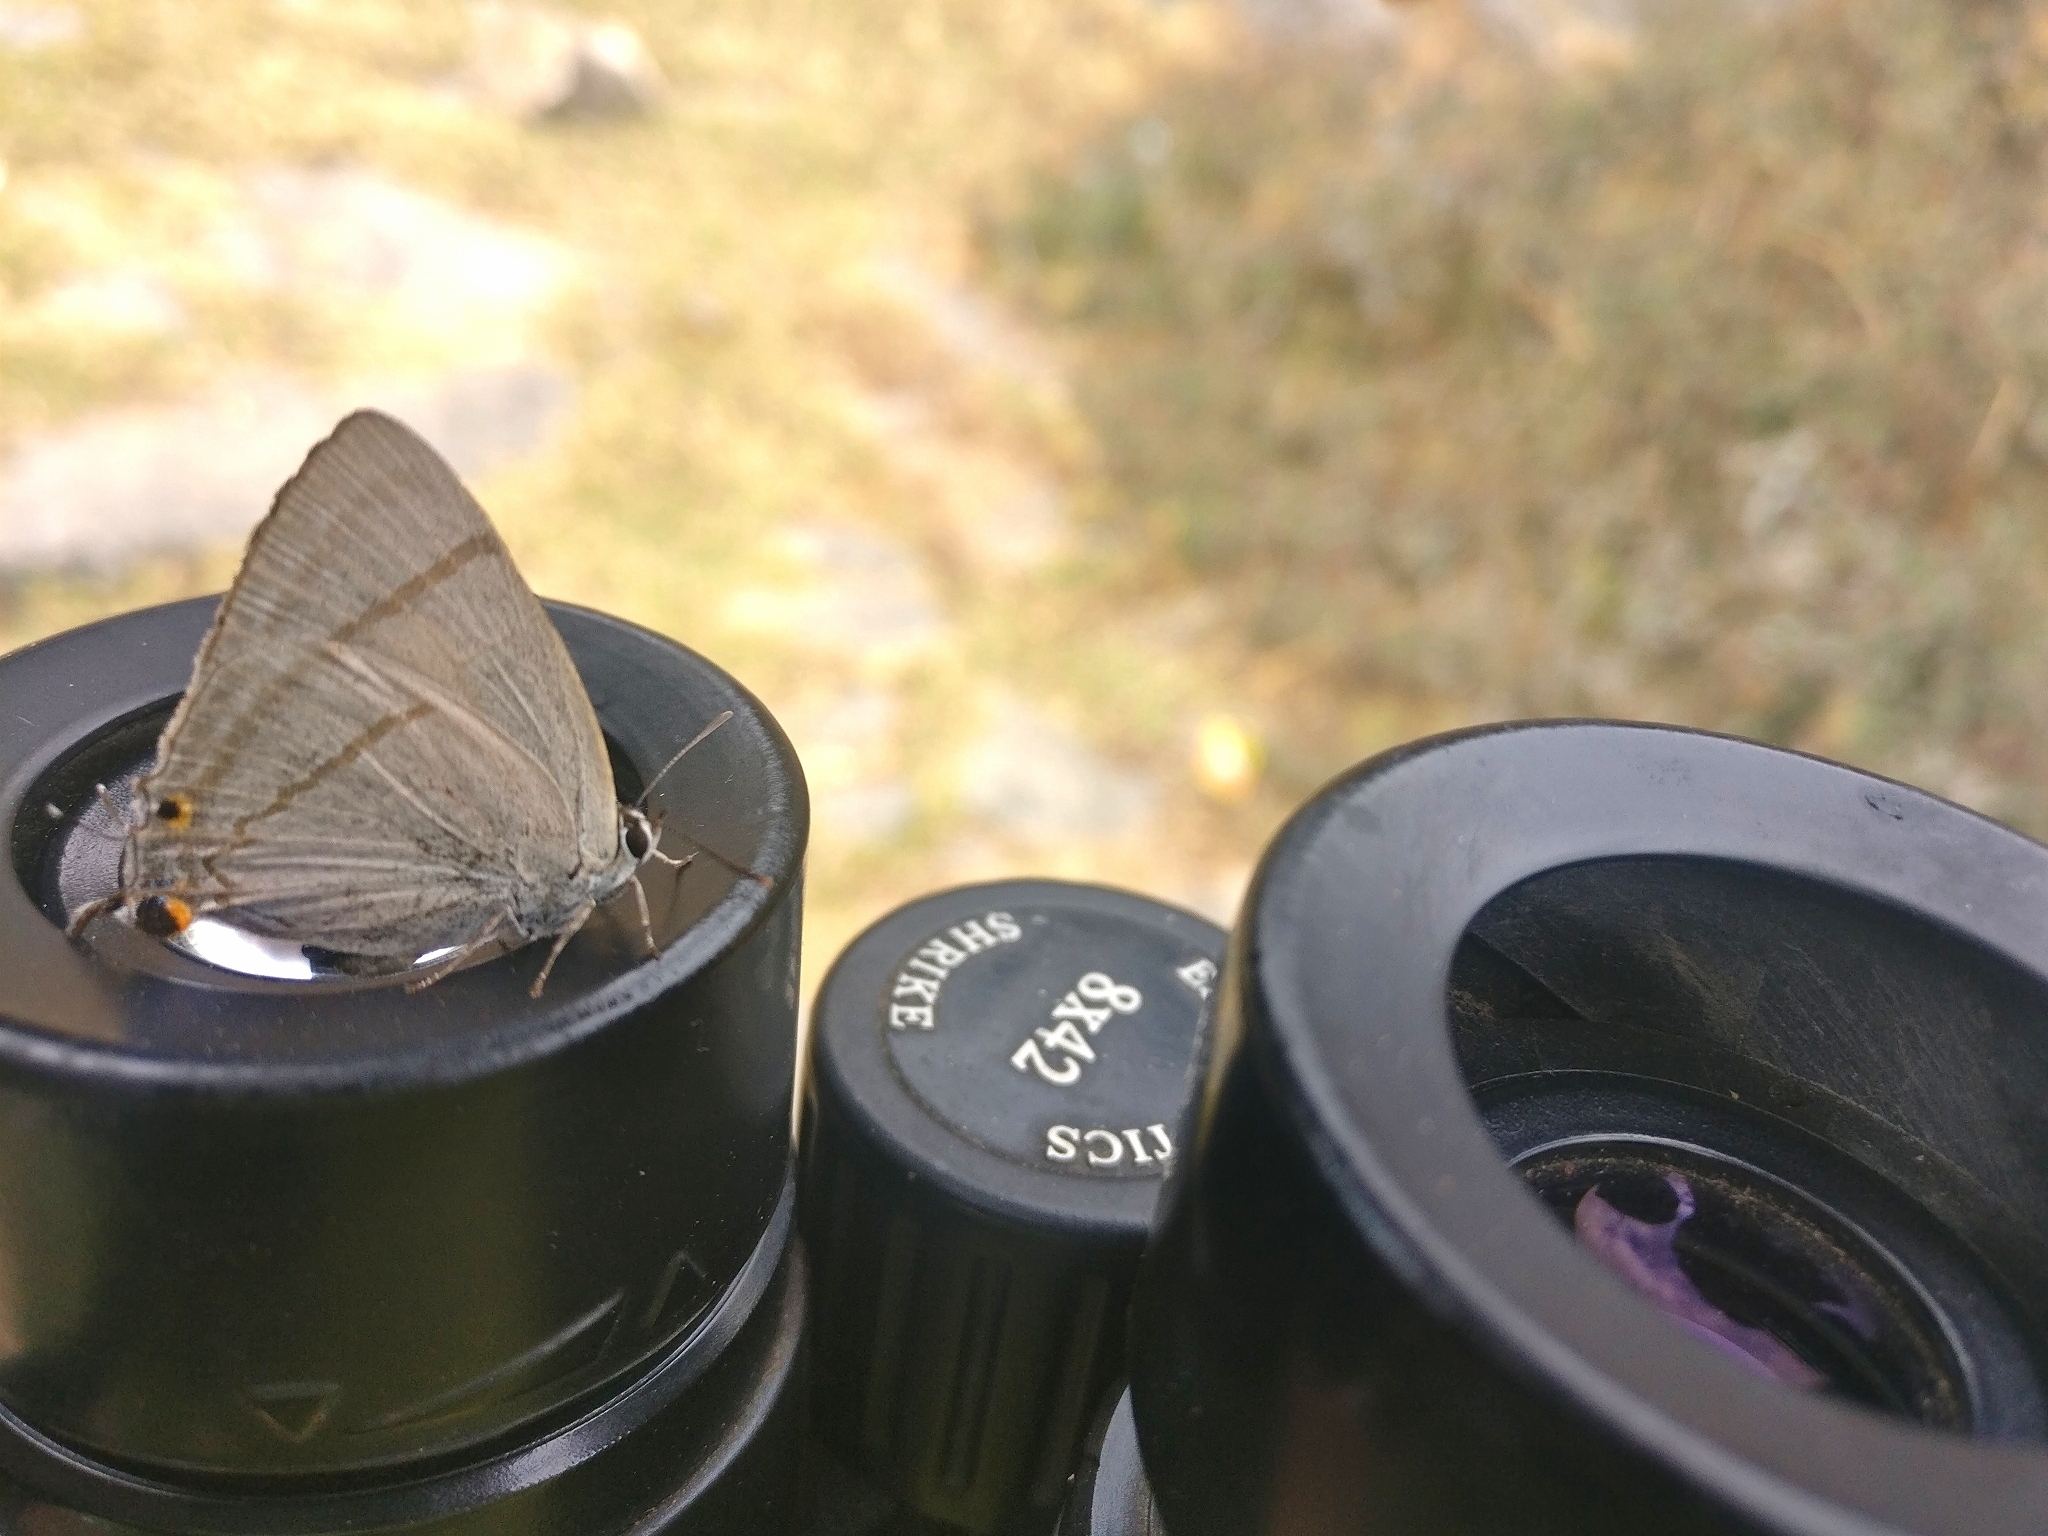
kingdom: Animalia
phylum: Arthropoda
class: Insecta
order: Lepidoptera
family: Lycaenidae
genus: Tajuria
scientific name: Tajuria diaeus
